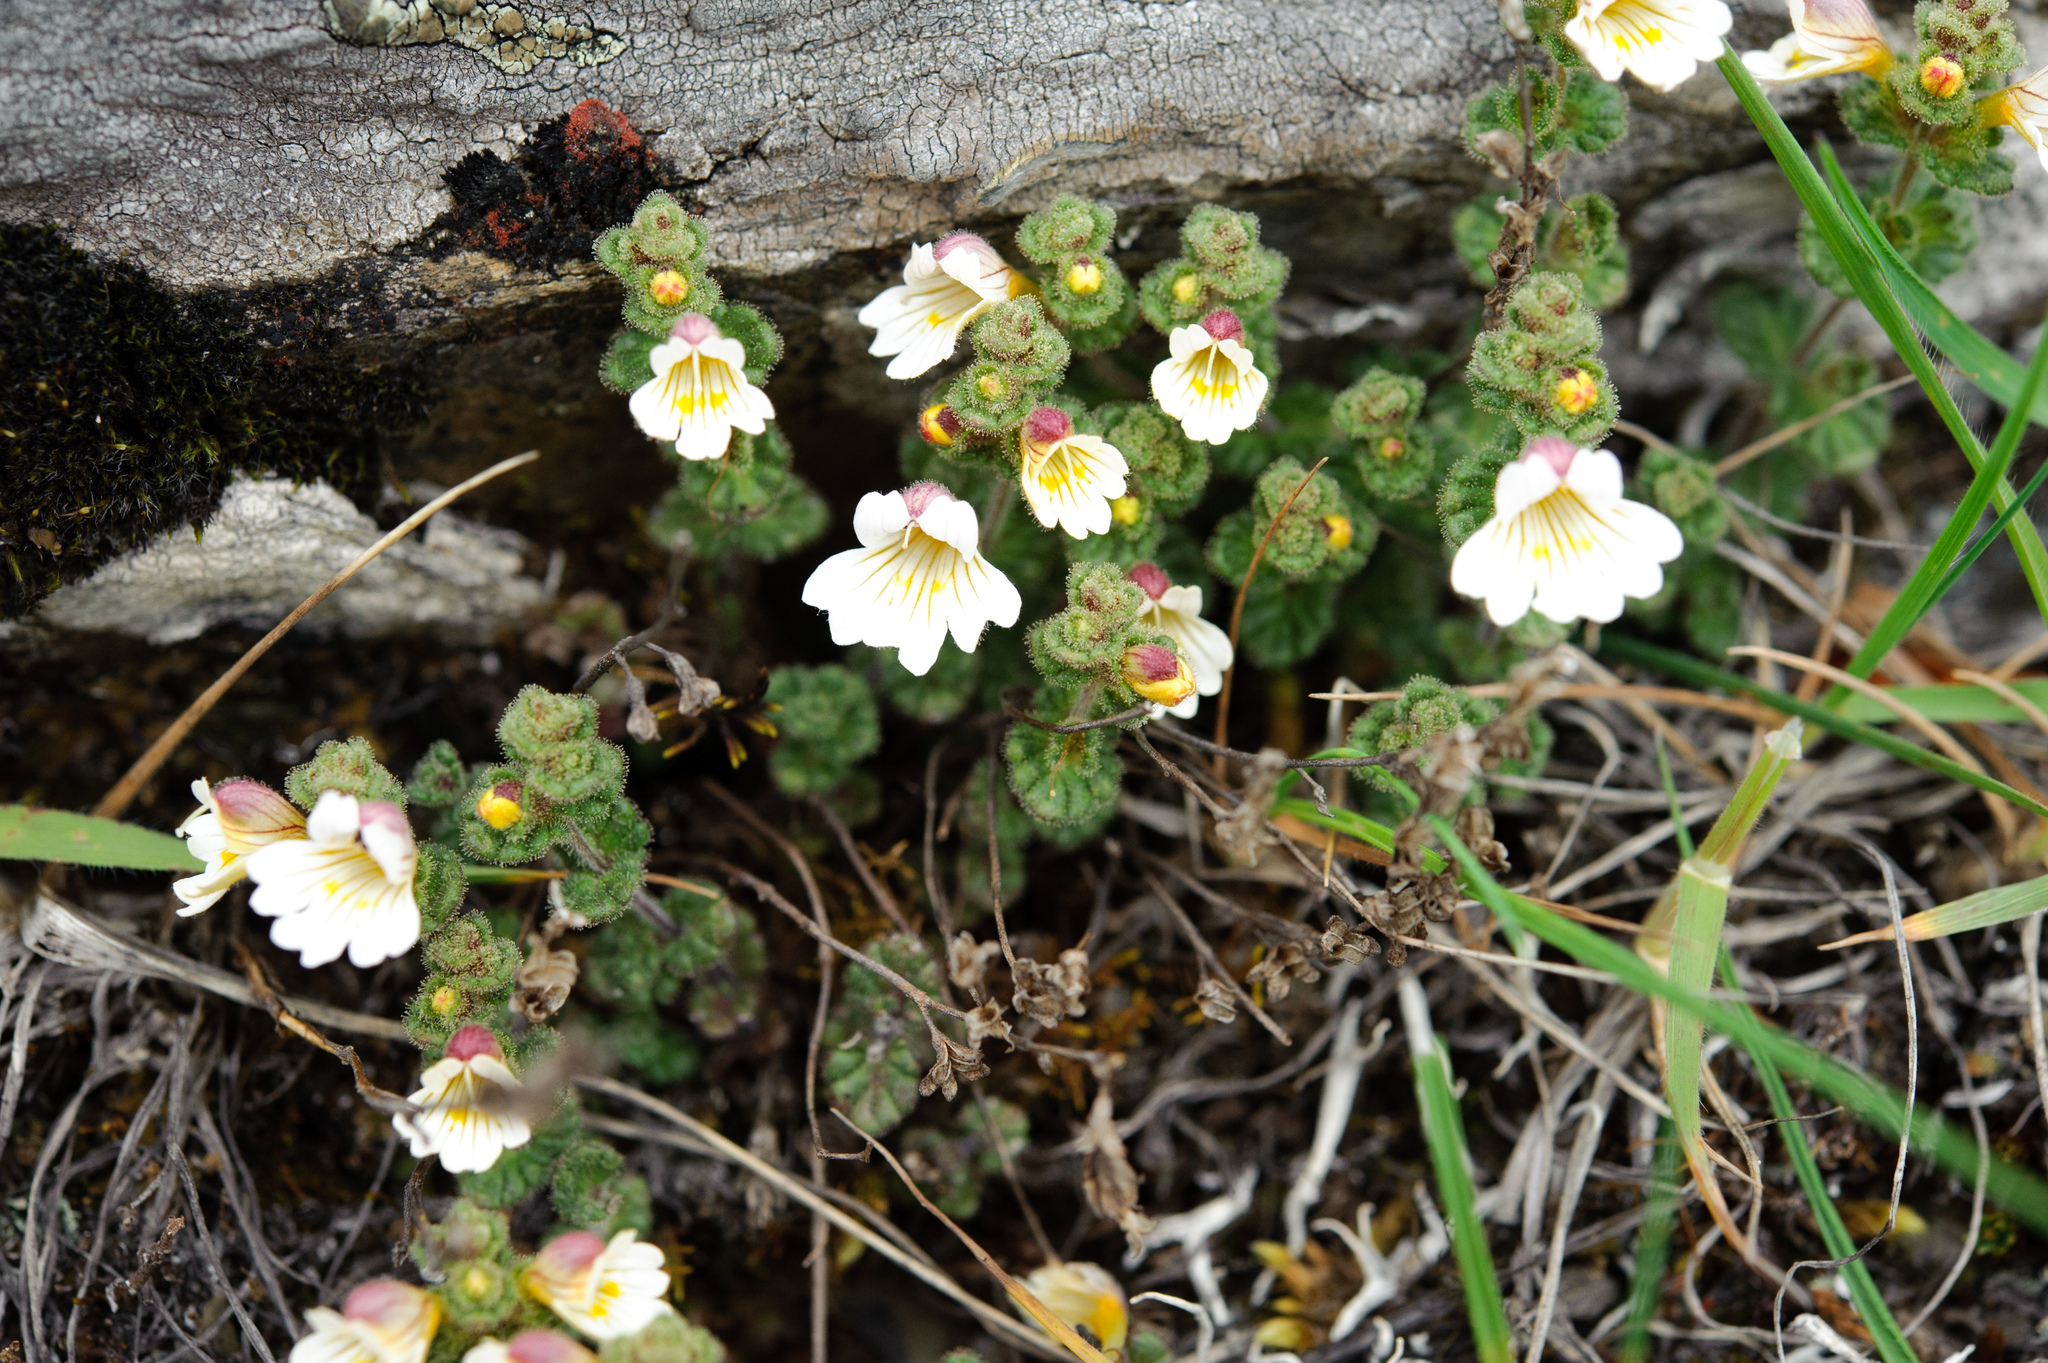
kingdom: Plantae
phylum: Tracheophyta
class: Magnoliopsida
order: Lamiales
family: Orobanchaceae
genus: Euphrasia
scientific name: Euphrasia transmorrisonensis
